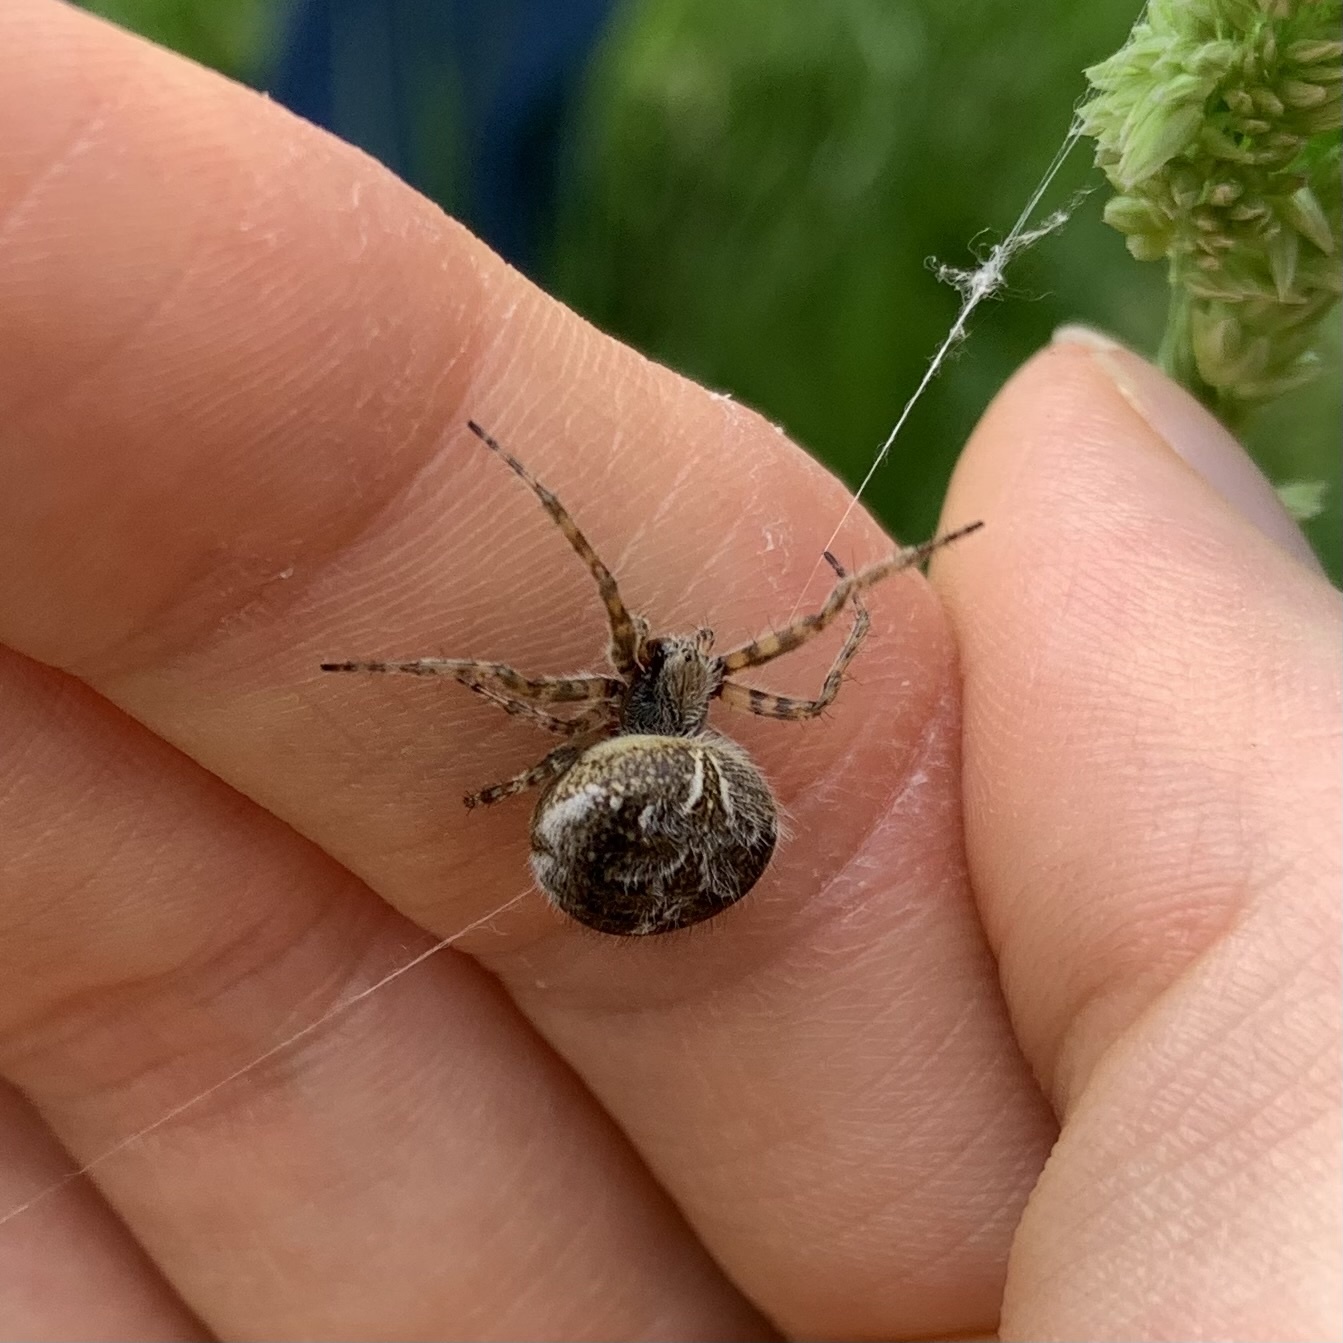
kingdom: Animalia
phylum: Arthropoda
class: Arachnida
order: Araneae
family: Araneidae
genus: Agalenatea
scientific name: Agalenatea redii
